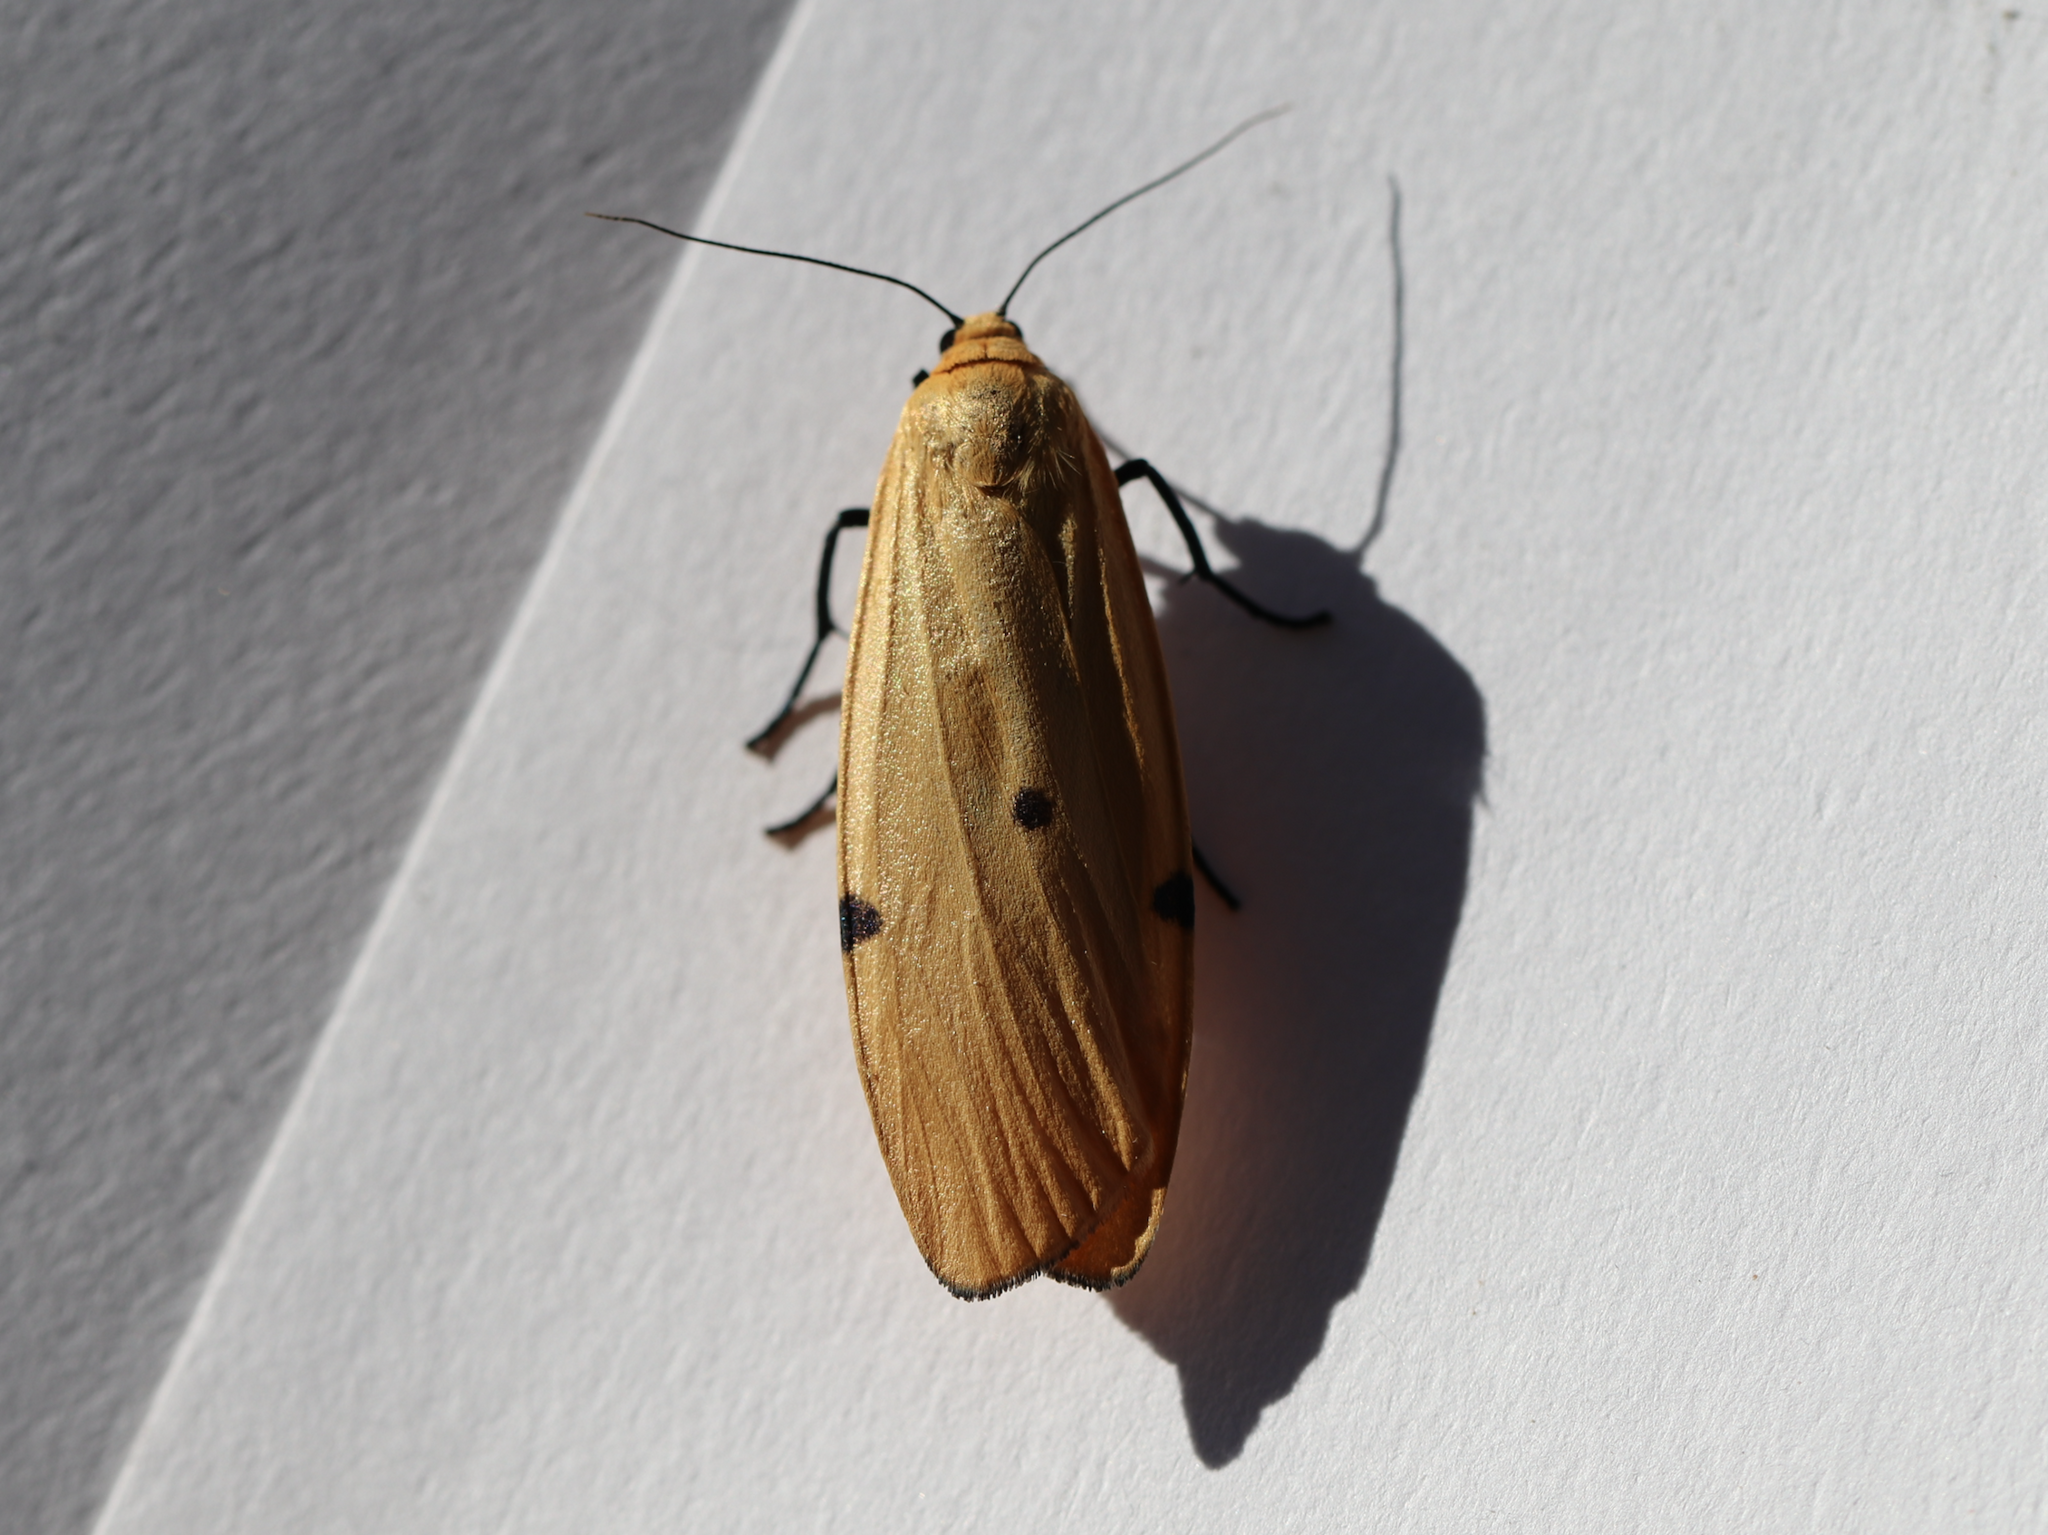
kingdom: Animalia
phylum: Arthropoda
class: Insecta
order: Lepidoptera
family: Erebidae
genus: Lithosia
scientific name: Lithosia quadra
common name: Four-spotted footman
